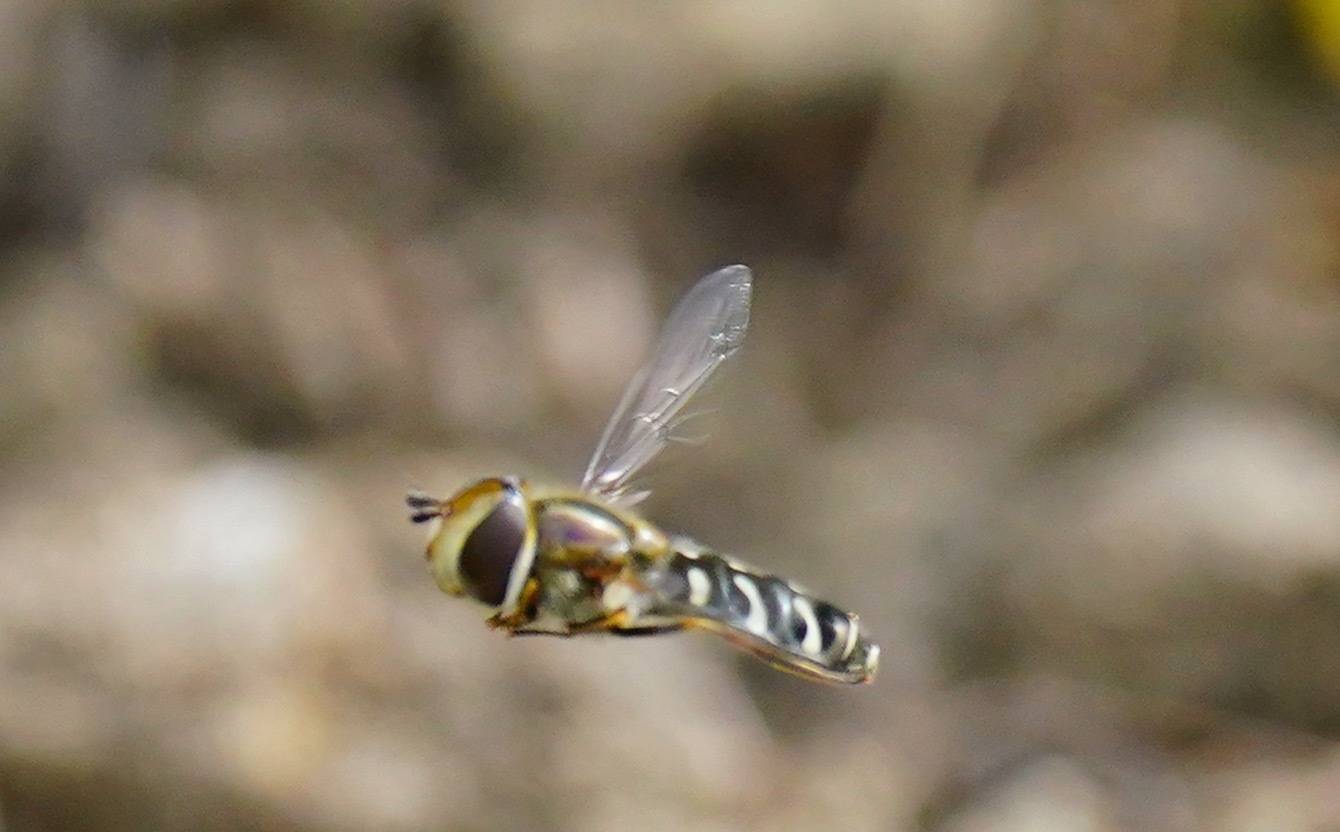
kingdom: Animalia
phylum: Arthropoda
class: Insecta
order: Diptera
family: Syrphidae
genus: Scaeva
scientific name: Scaeva affinis
